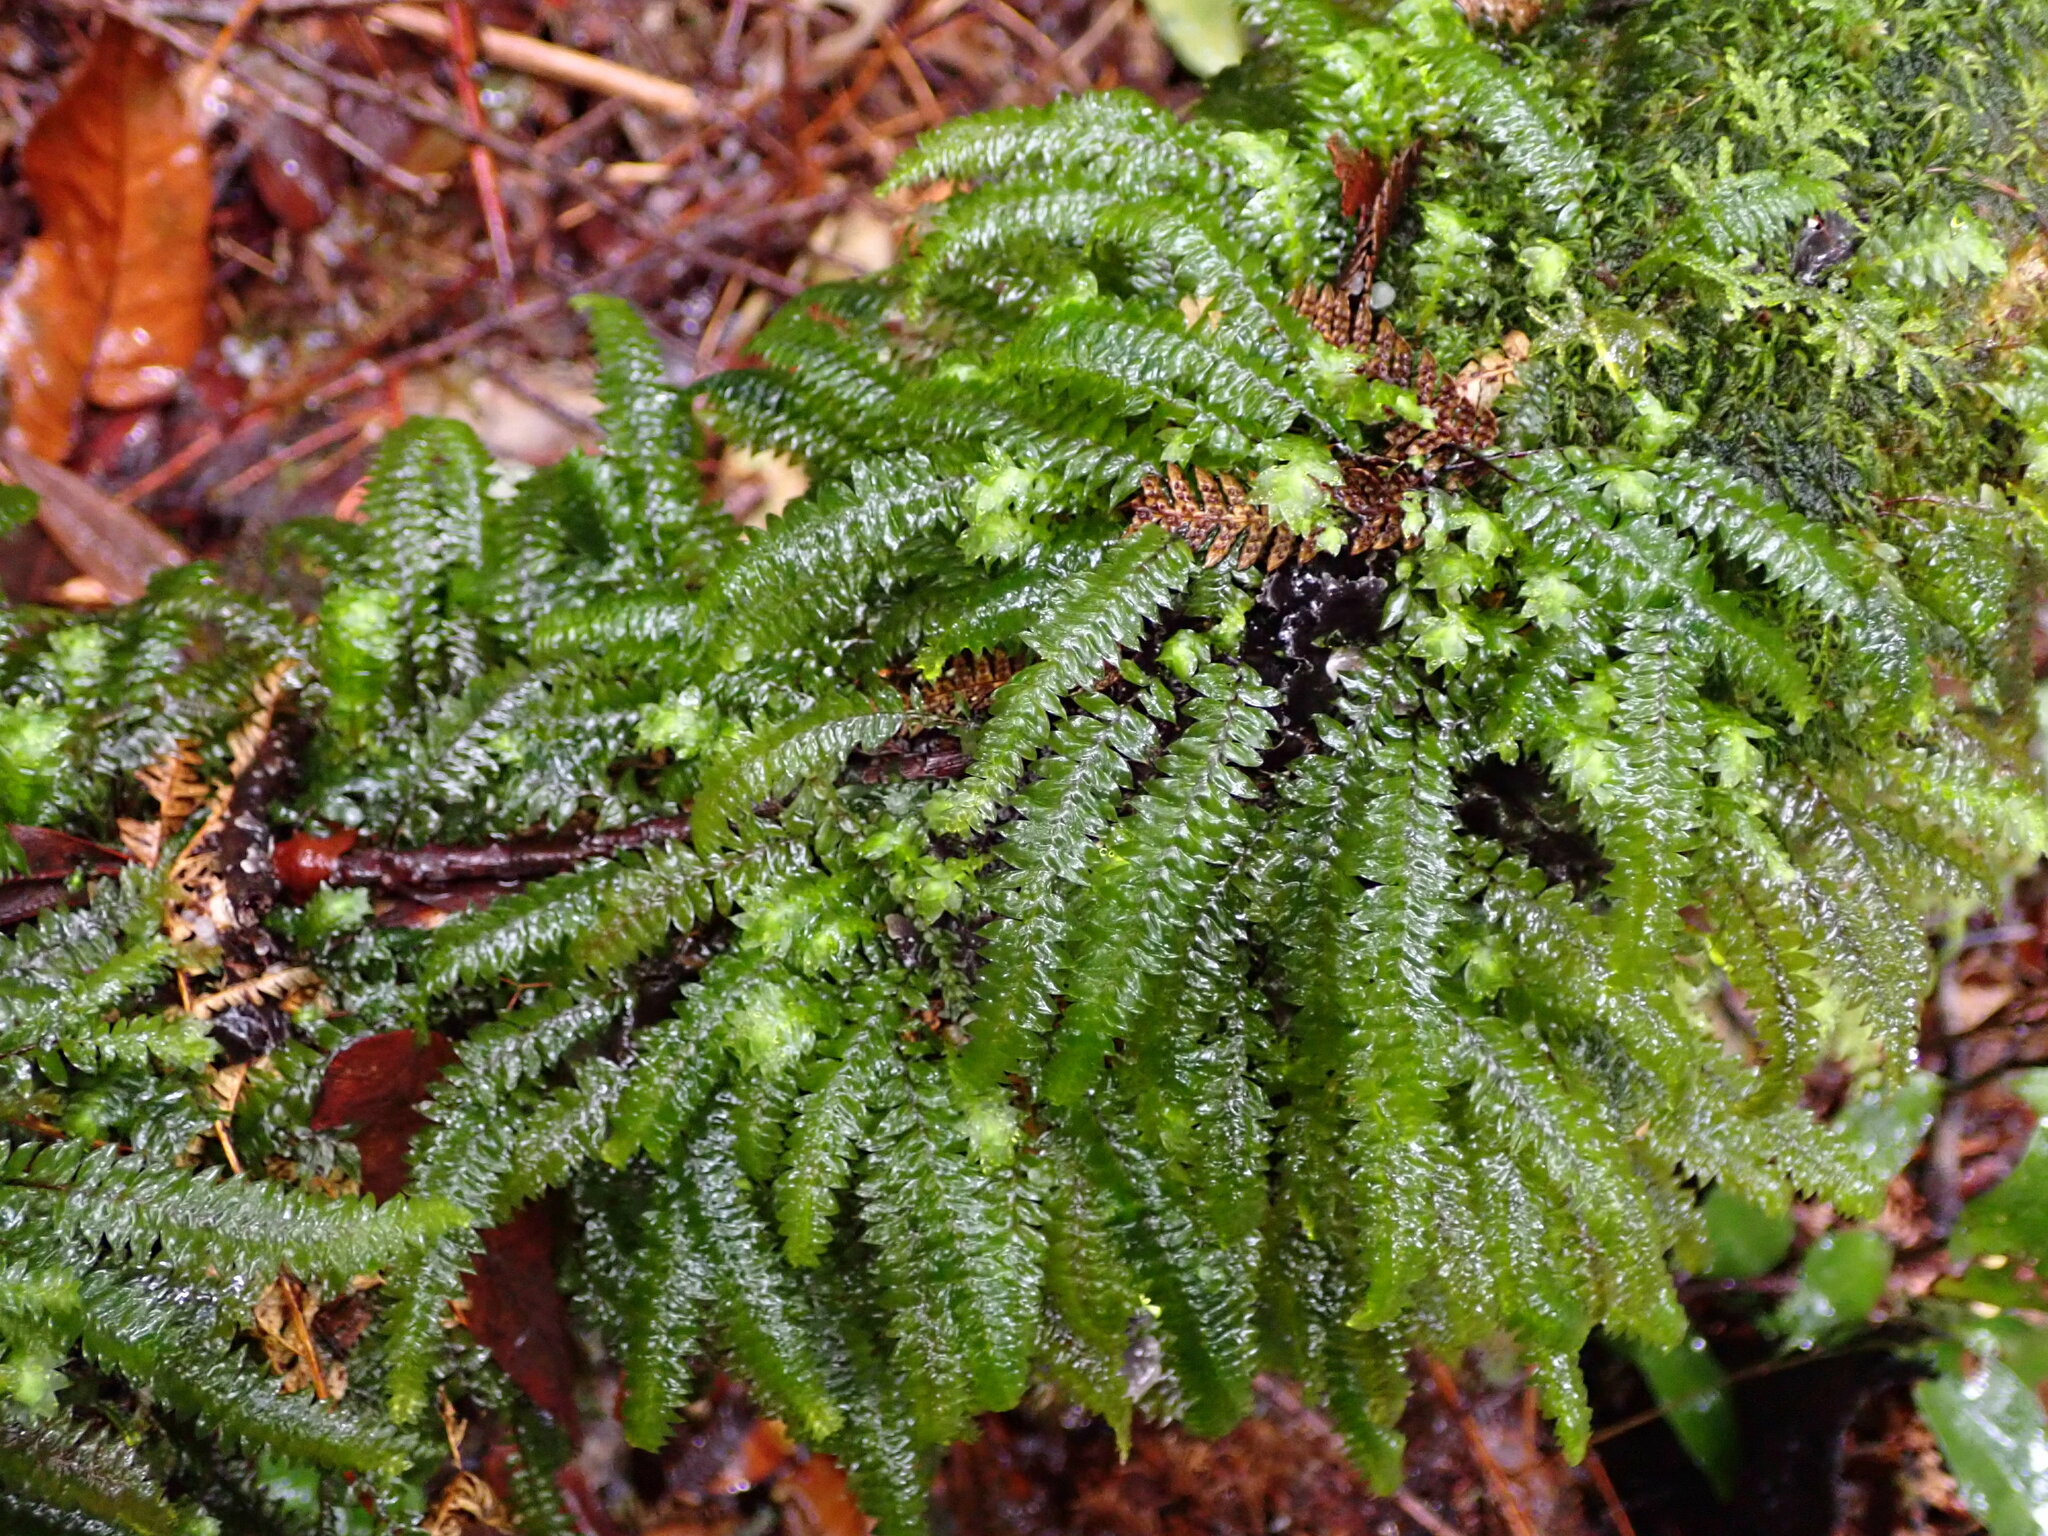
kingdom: Plantae
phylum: Bryophyta
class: Bryopsida
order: Hypopterygiales
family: Hypopterygiaceae
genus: Cyathophorum
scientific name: Cyathophorum bulbosum
